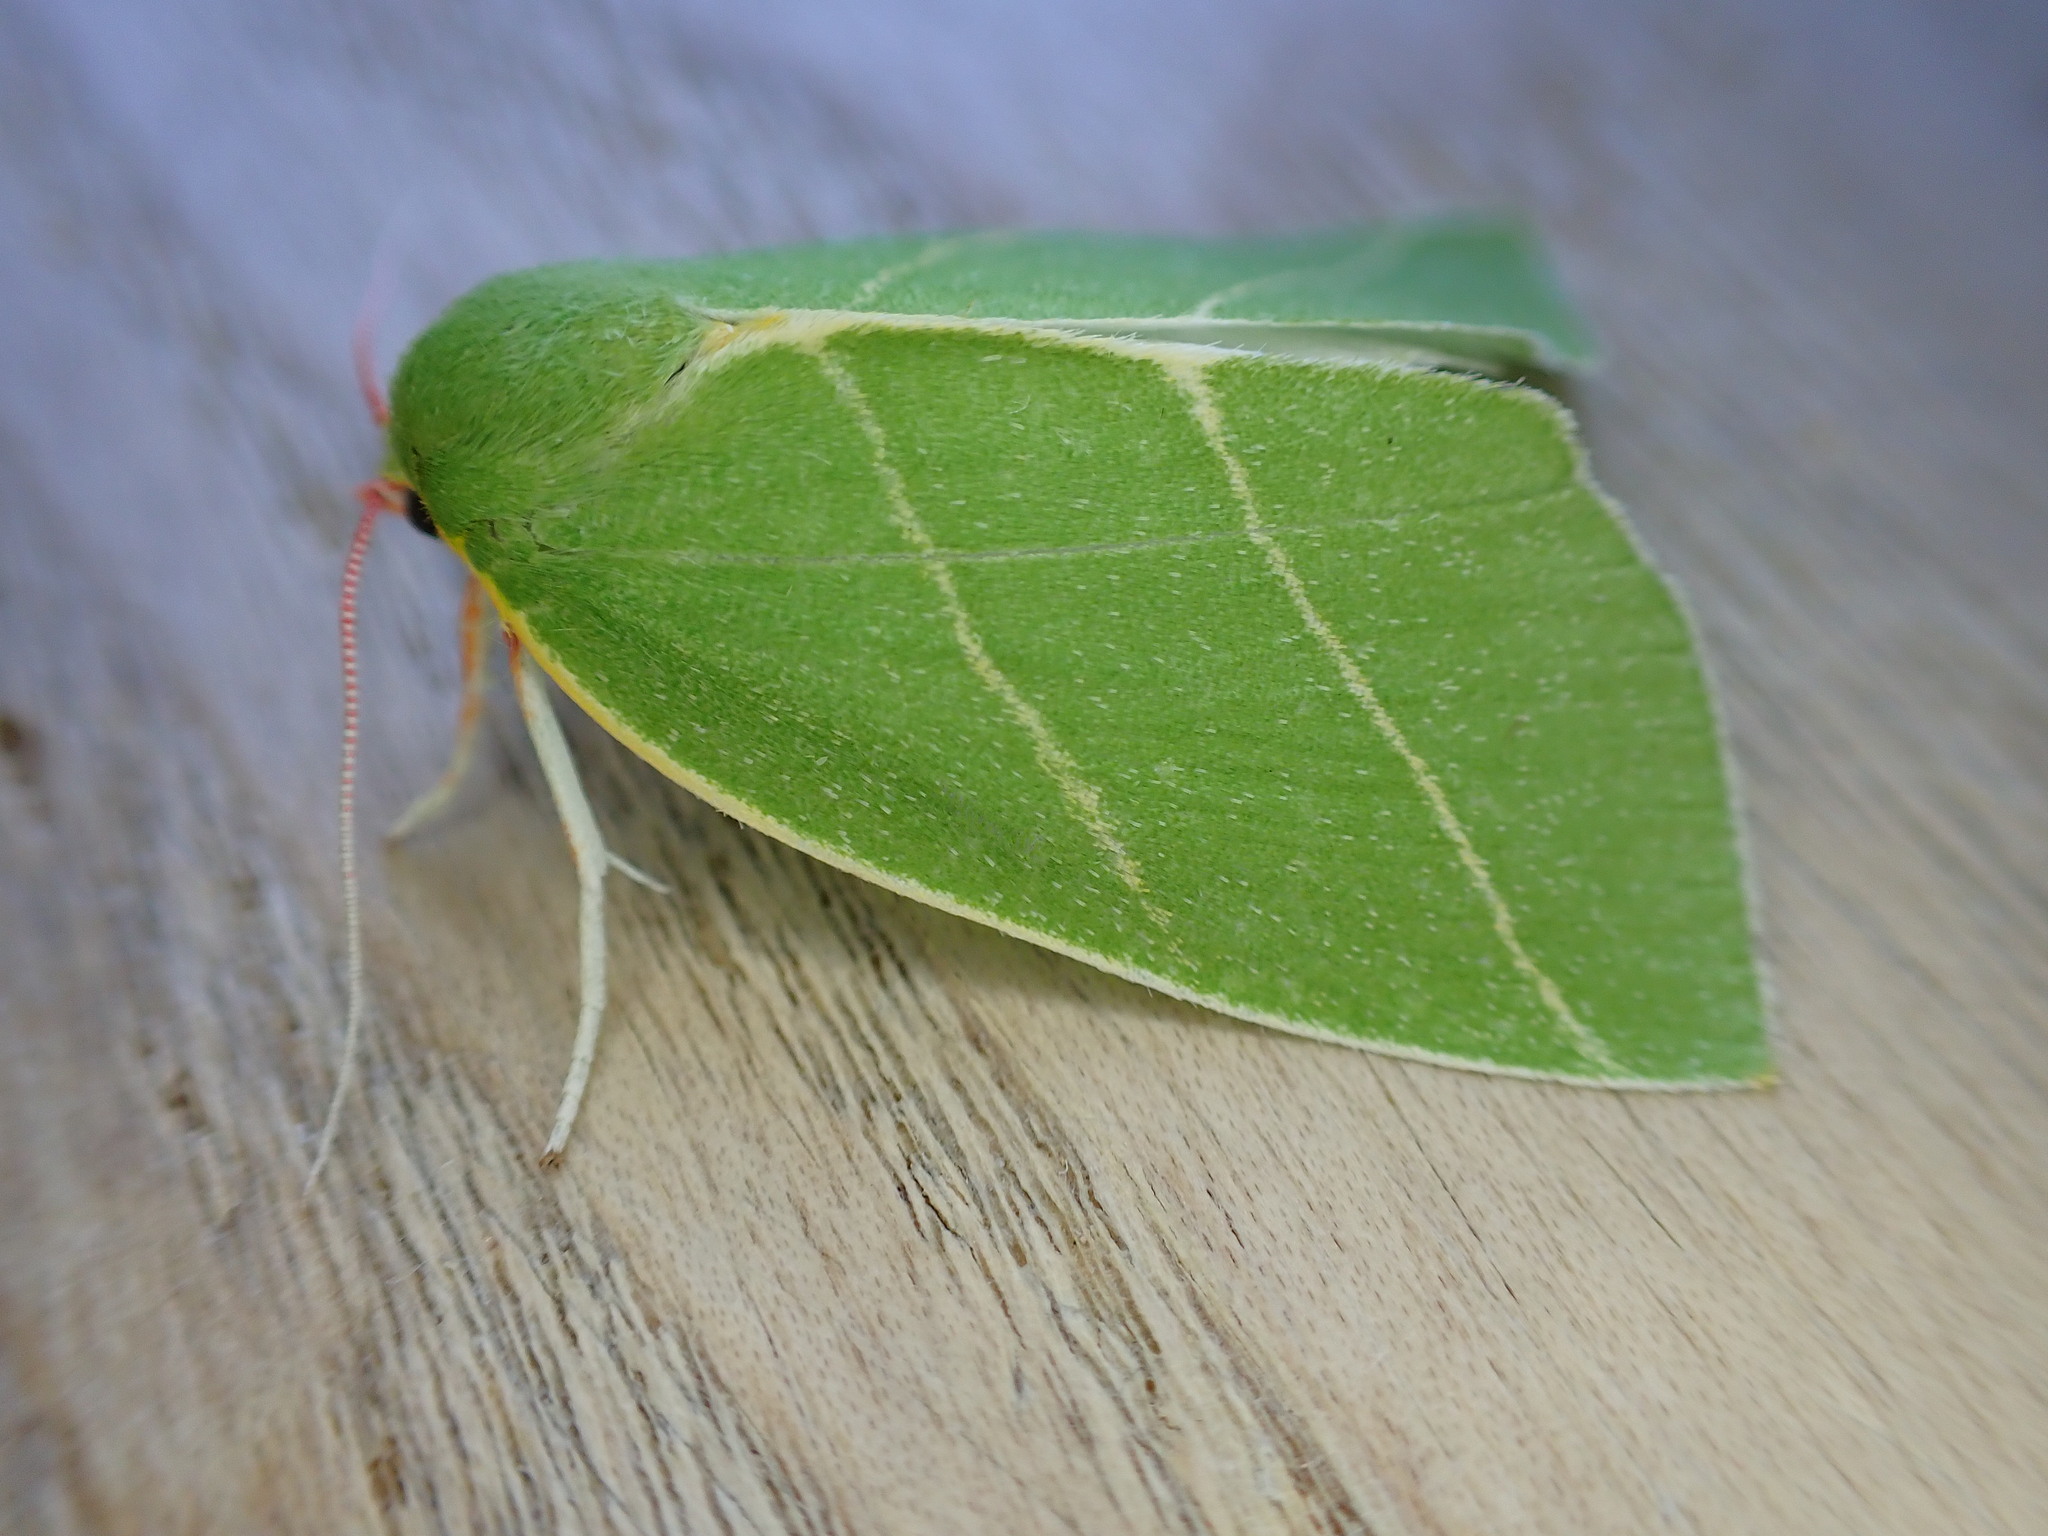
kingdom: Animalia
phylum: Arthropoda
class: Insecta
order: Lepidoptera
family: Nolidae
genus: Bena
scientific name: Bena bicolorana
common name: Scarce silver-lines
